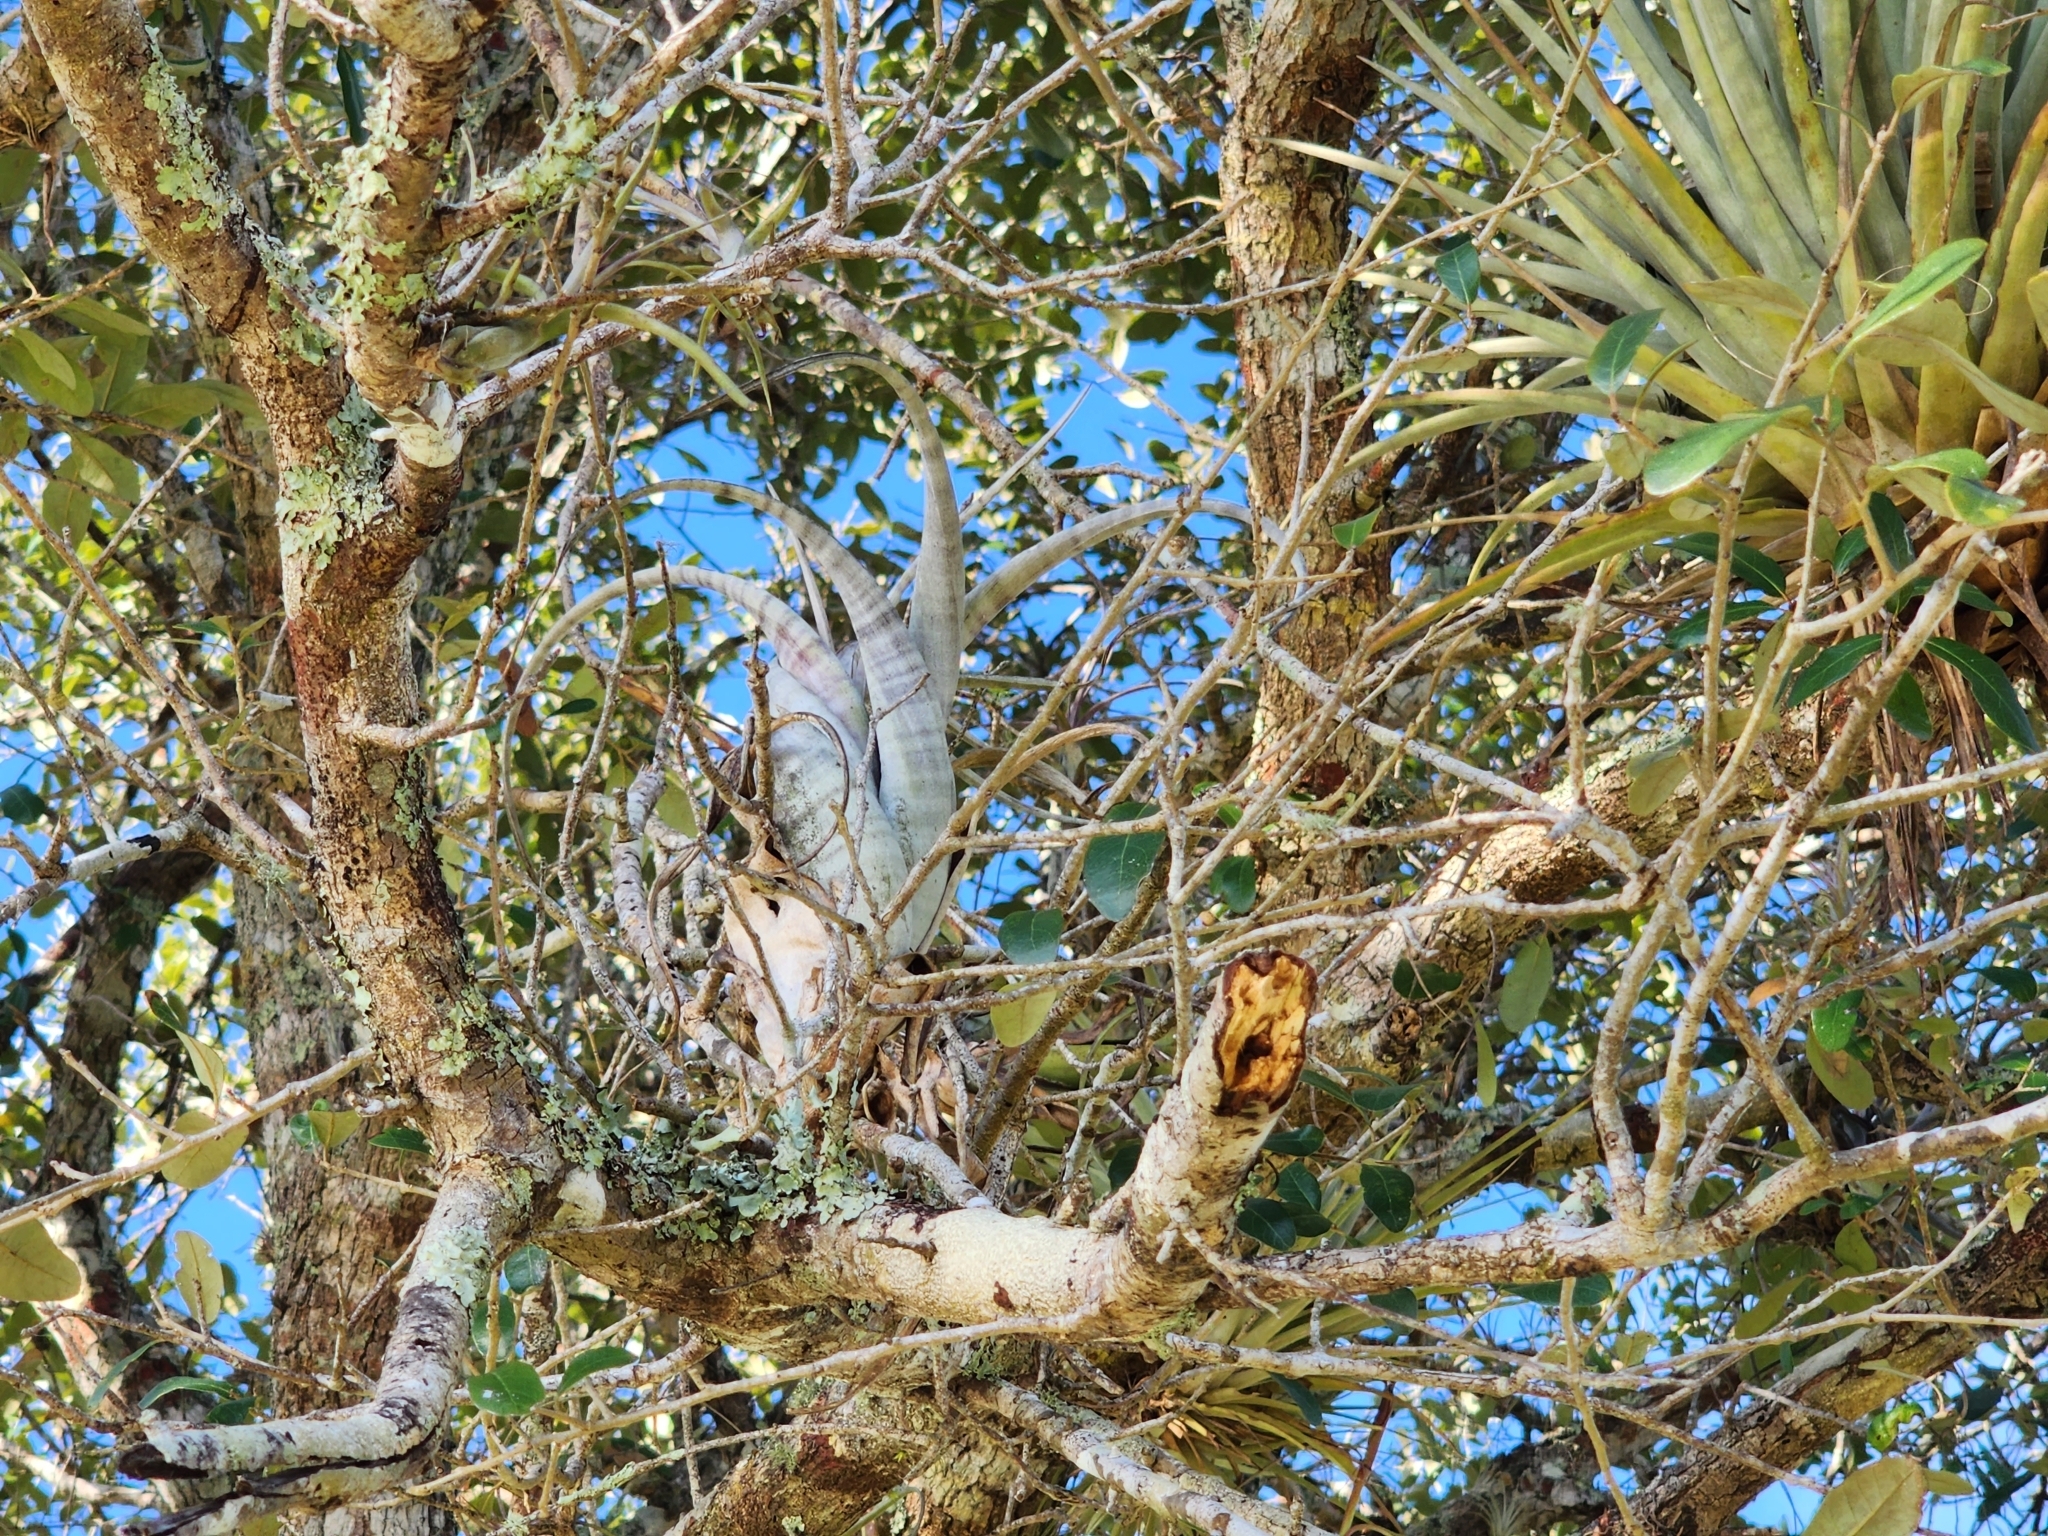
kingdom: Plantae
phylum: Tracheophyta
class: Liliopsida
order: Poales
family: Bromeliaceae
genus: Tillandsia
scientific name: Tillandsia flexuosa
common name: Banded airplant
